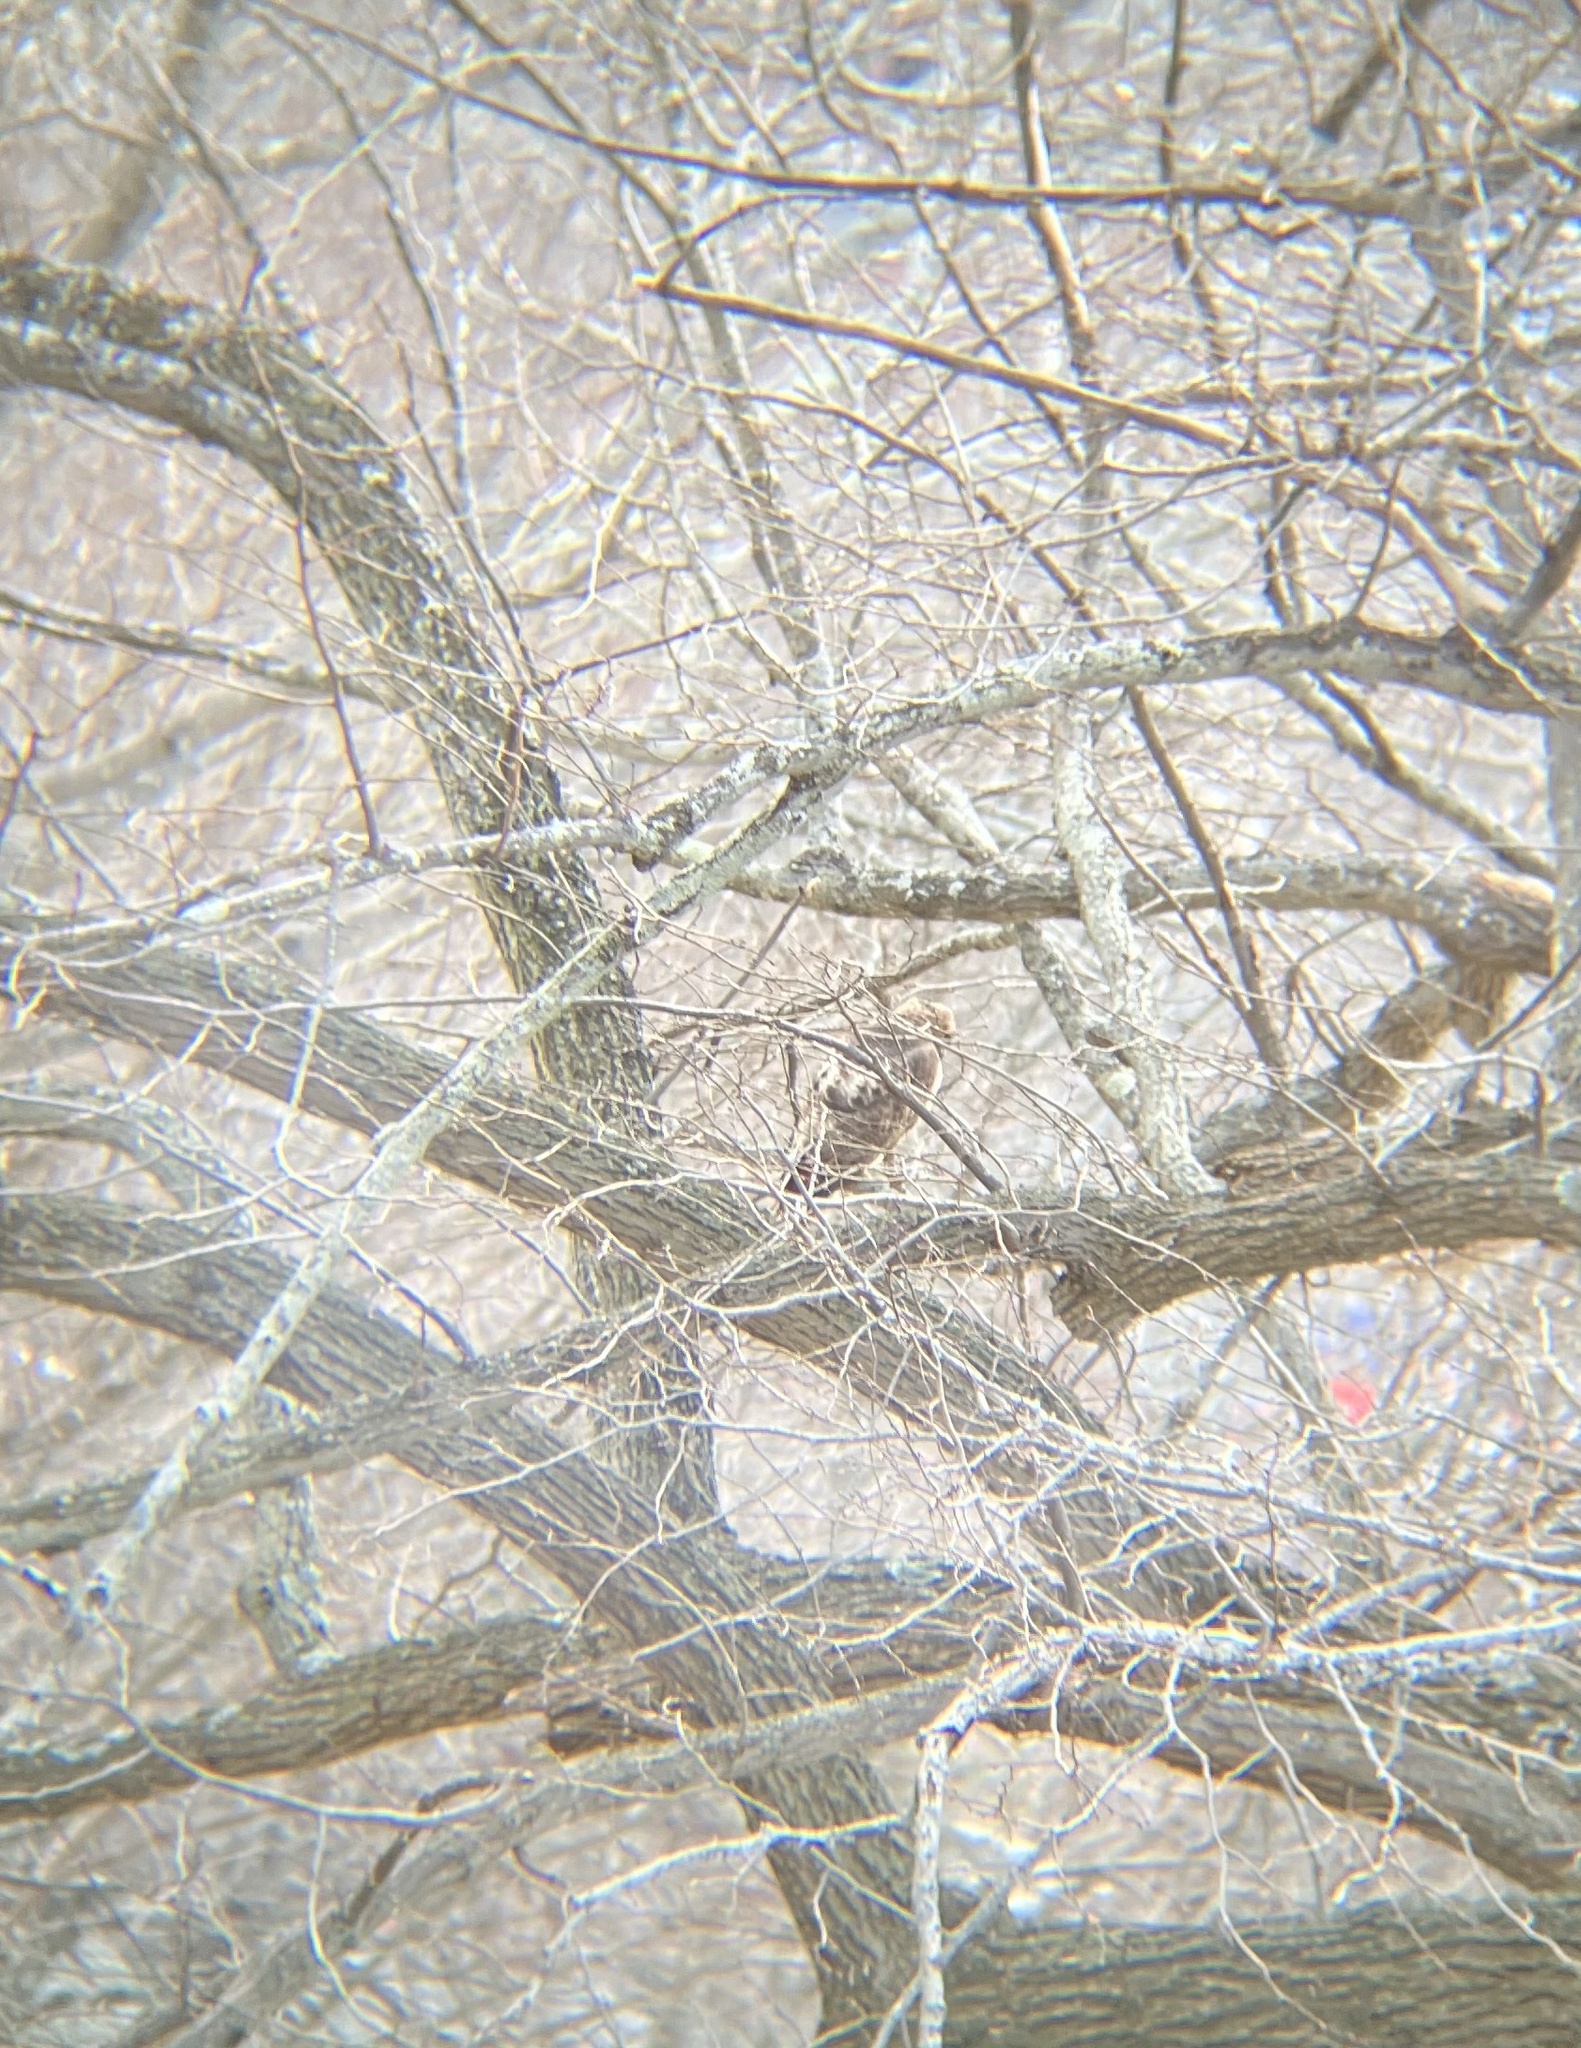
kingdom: Animalia
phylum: Chordata
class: Aves
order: Accipitriformes
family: Accipitridae
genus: Buteo
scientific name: Buteo jamaicensis
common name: Red-tailed hawk
